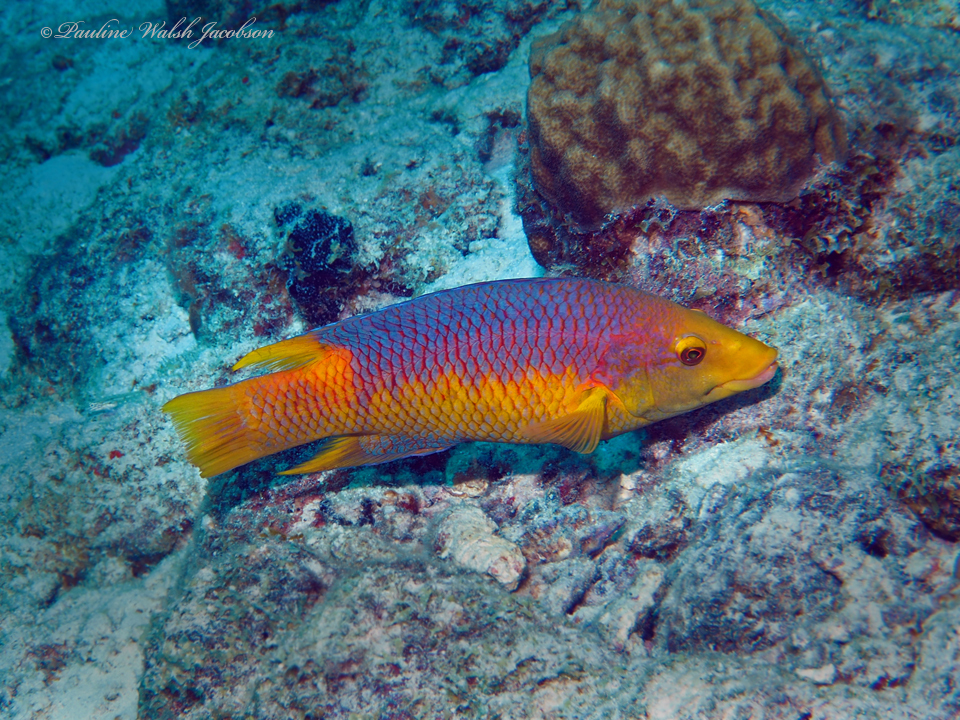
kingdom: Animalia
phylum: Chordata
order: Perciformes
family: Labridae
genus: Bodianus
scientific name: Bodianus rufus
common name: Spanish hogfish
